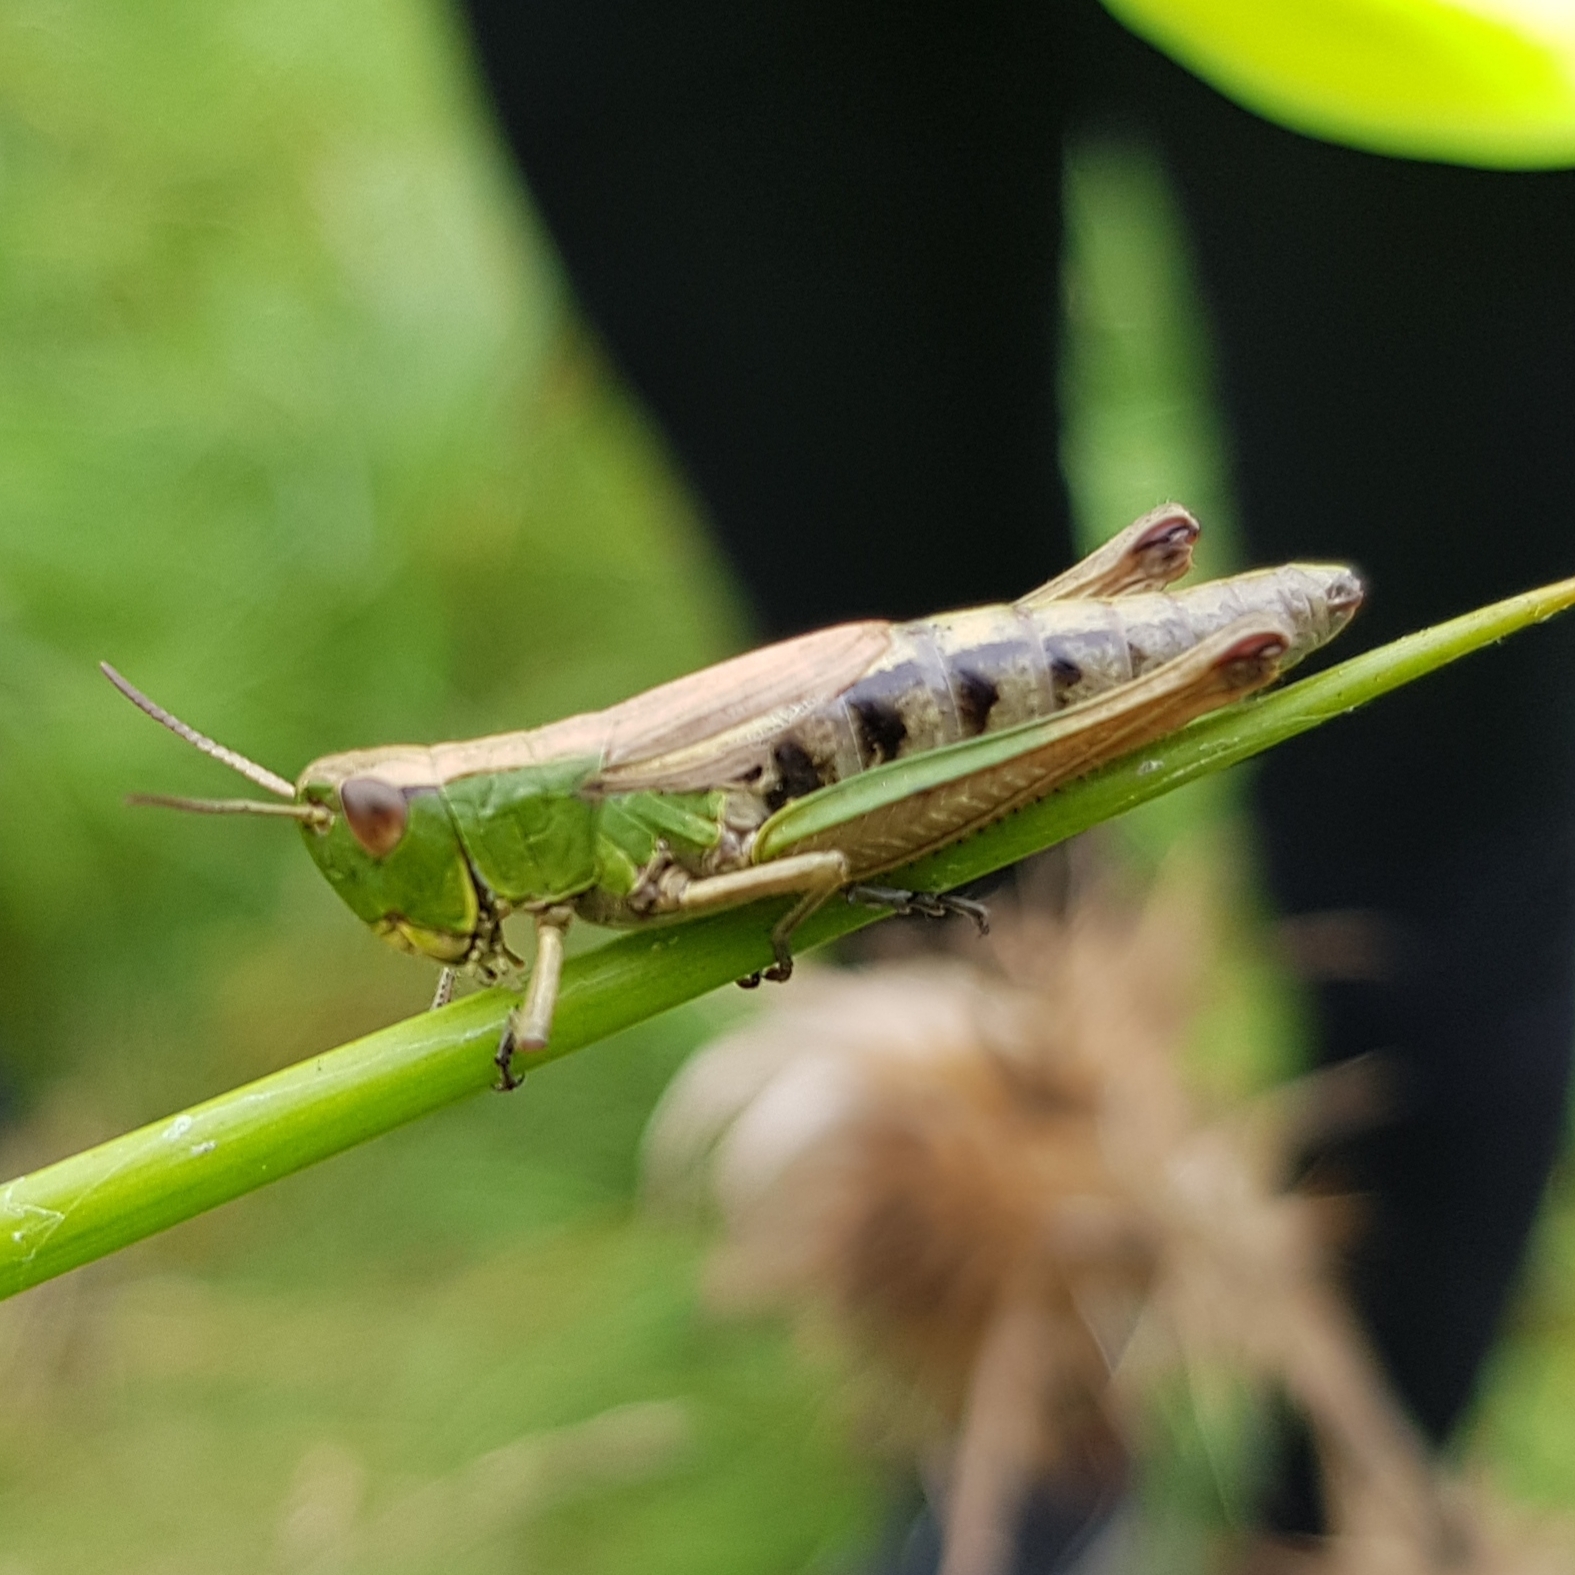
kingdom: Animalia
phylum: Arthropoda
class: Insecta
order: Orthoptera
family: Acrididae
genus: Pseudochorthippus
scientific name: Pseudochorthippus parallelus
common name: Meadow grasshopper
